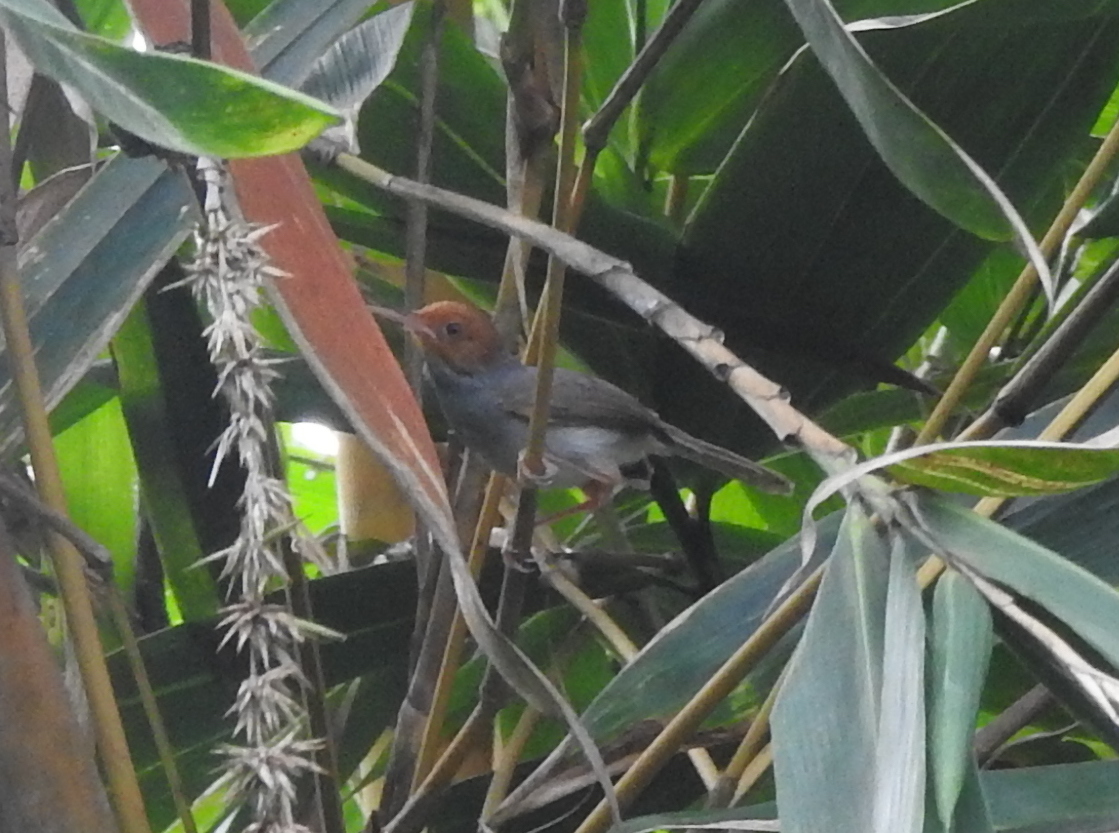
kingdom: Animalia
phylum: Chordata
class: Aves
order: Passeriformes
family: Cisticolidae
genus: Orthotomus
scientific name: Orthotomus ruficeps
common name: Ashy tailorbird
